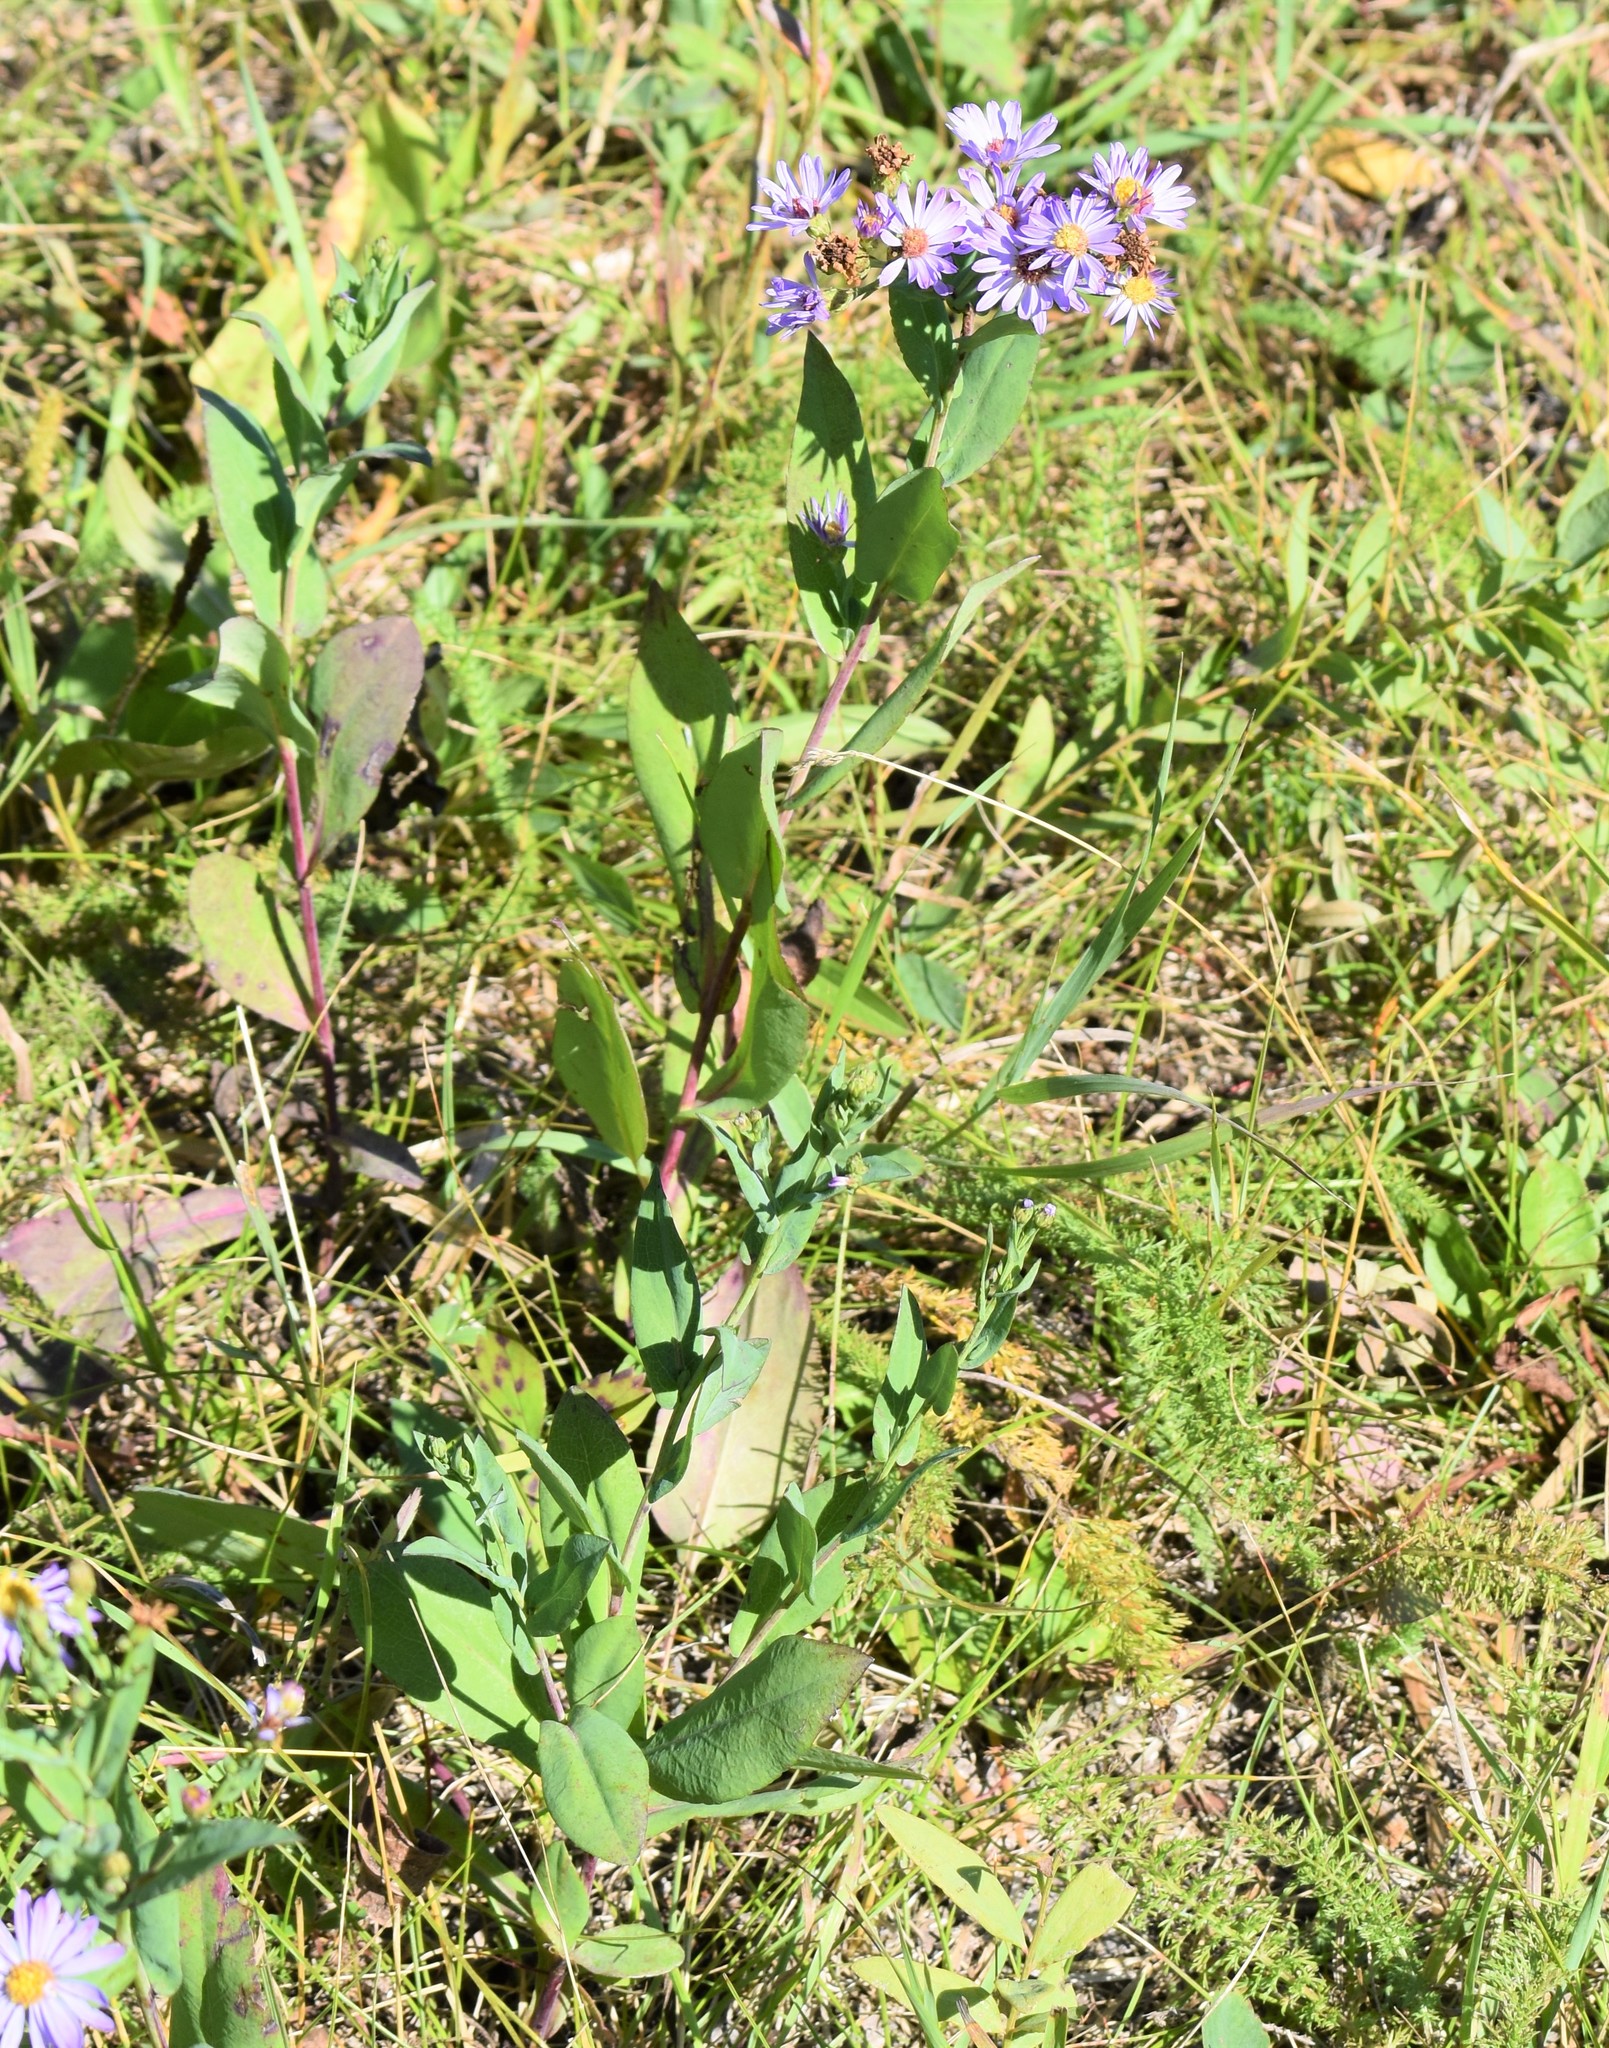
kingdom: Plantae
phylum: Tracheophyta
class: Magnoliopsida
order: Asterales
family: Asteraceae
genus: Symphyotrichum
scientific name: Symphyotrichum laeve
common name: Glaucous aster
